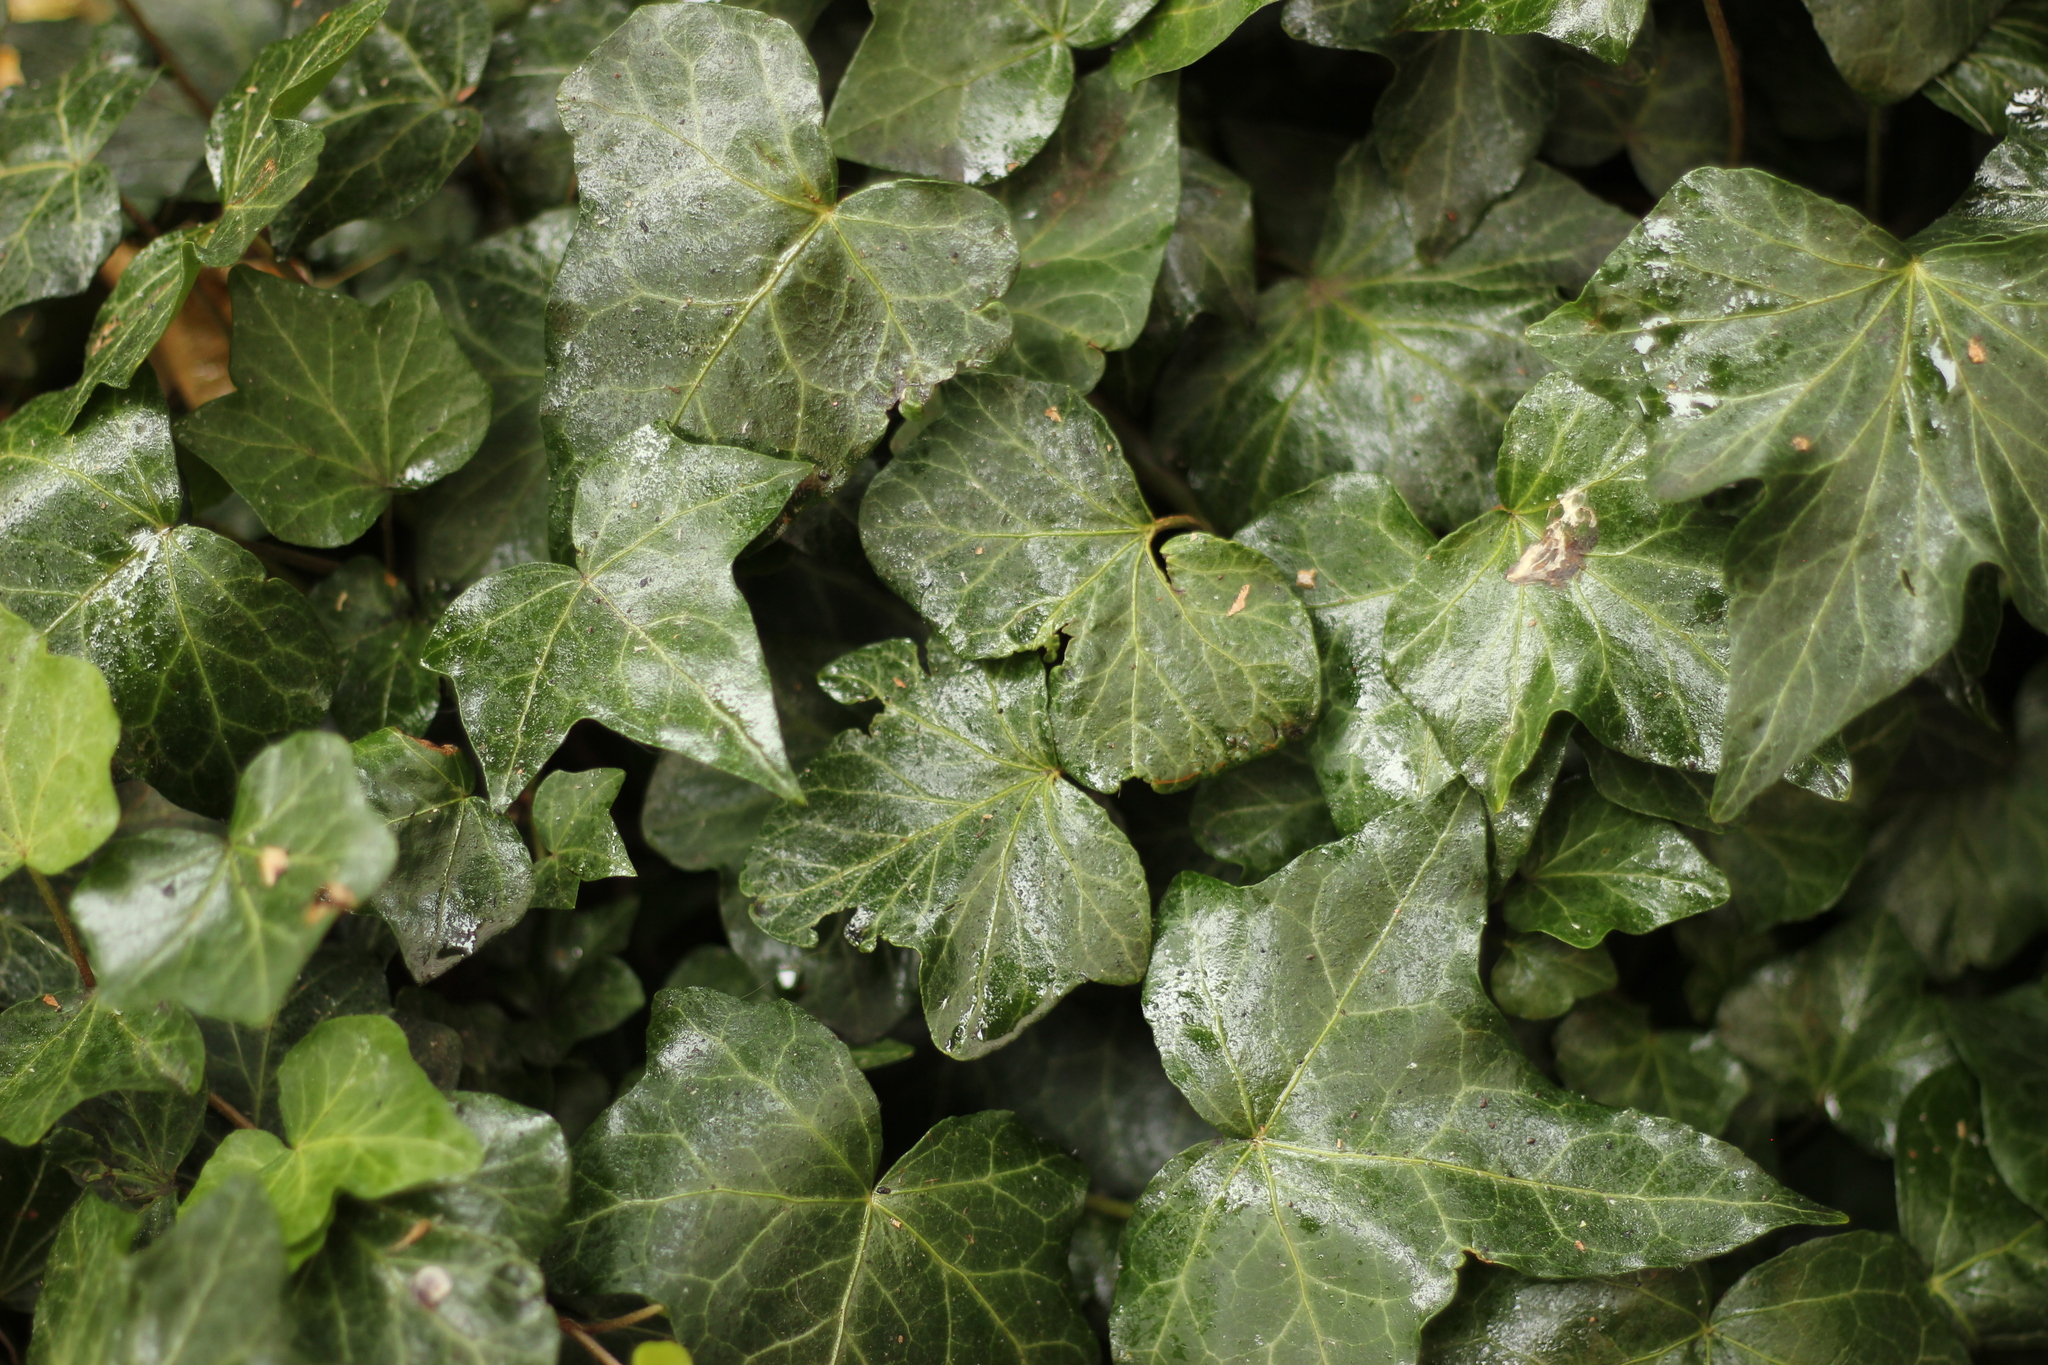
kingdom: Plantae
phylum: Tracheophyta
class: Magnoliopsida
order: Apiales
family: Araliaceae
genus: Hedera
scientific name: Hedera helix
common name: Ivy
